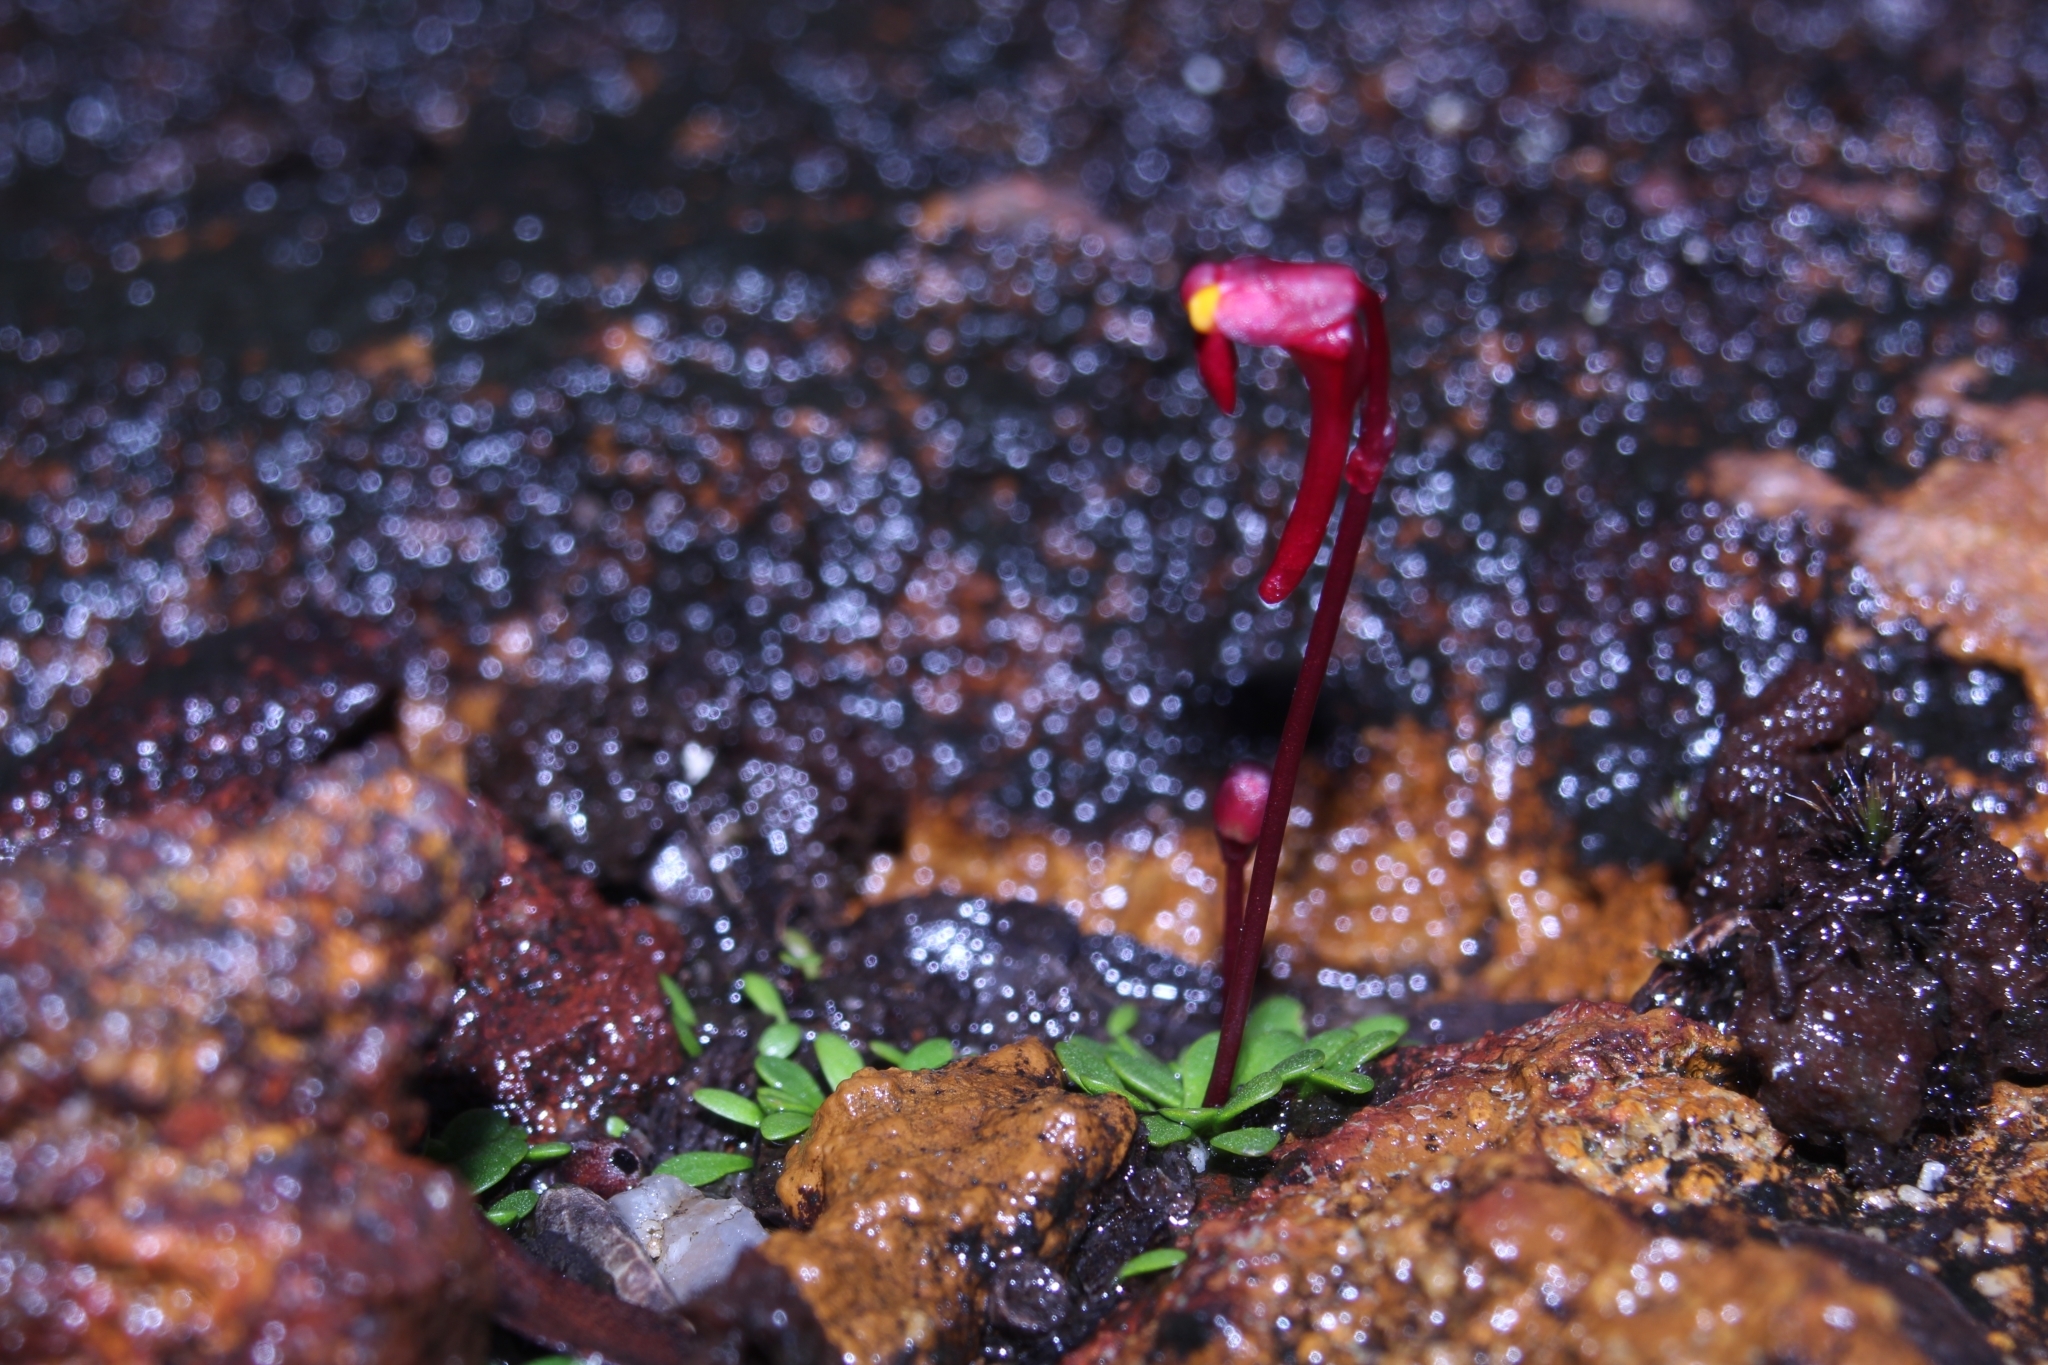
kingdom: Plantae
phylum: Tracheophyta
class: Magnoliopsida
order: Lamiales
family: Lentibulariaceae
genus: Utricularia
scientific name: Utricularia menziesii
